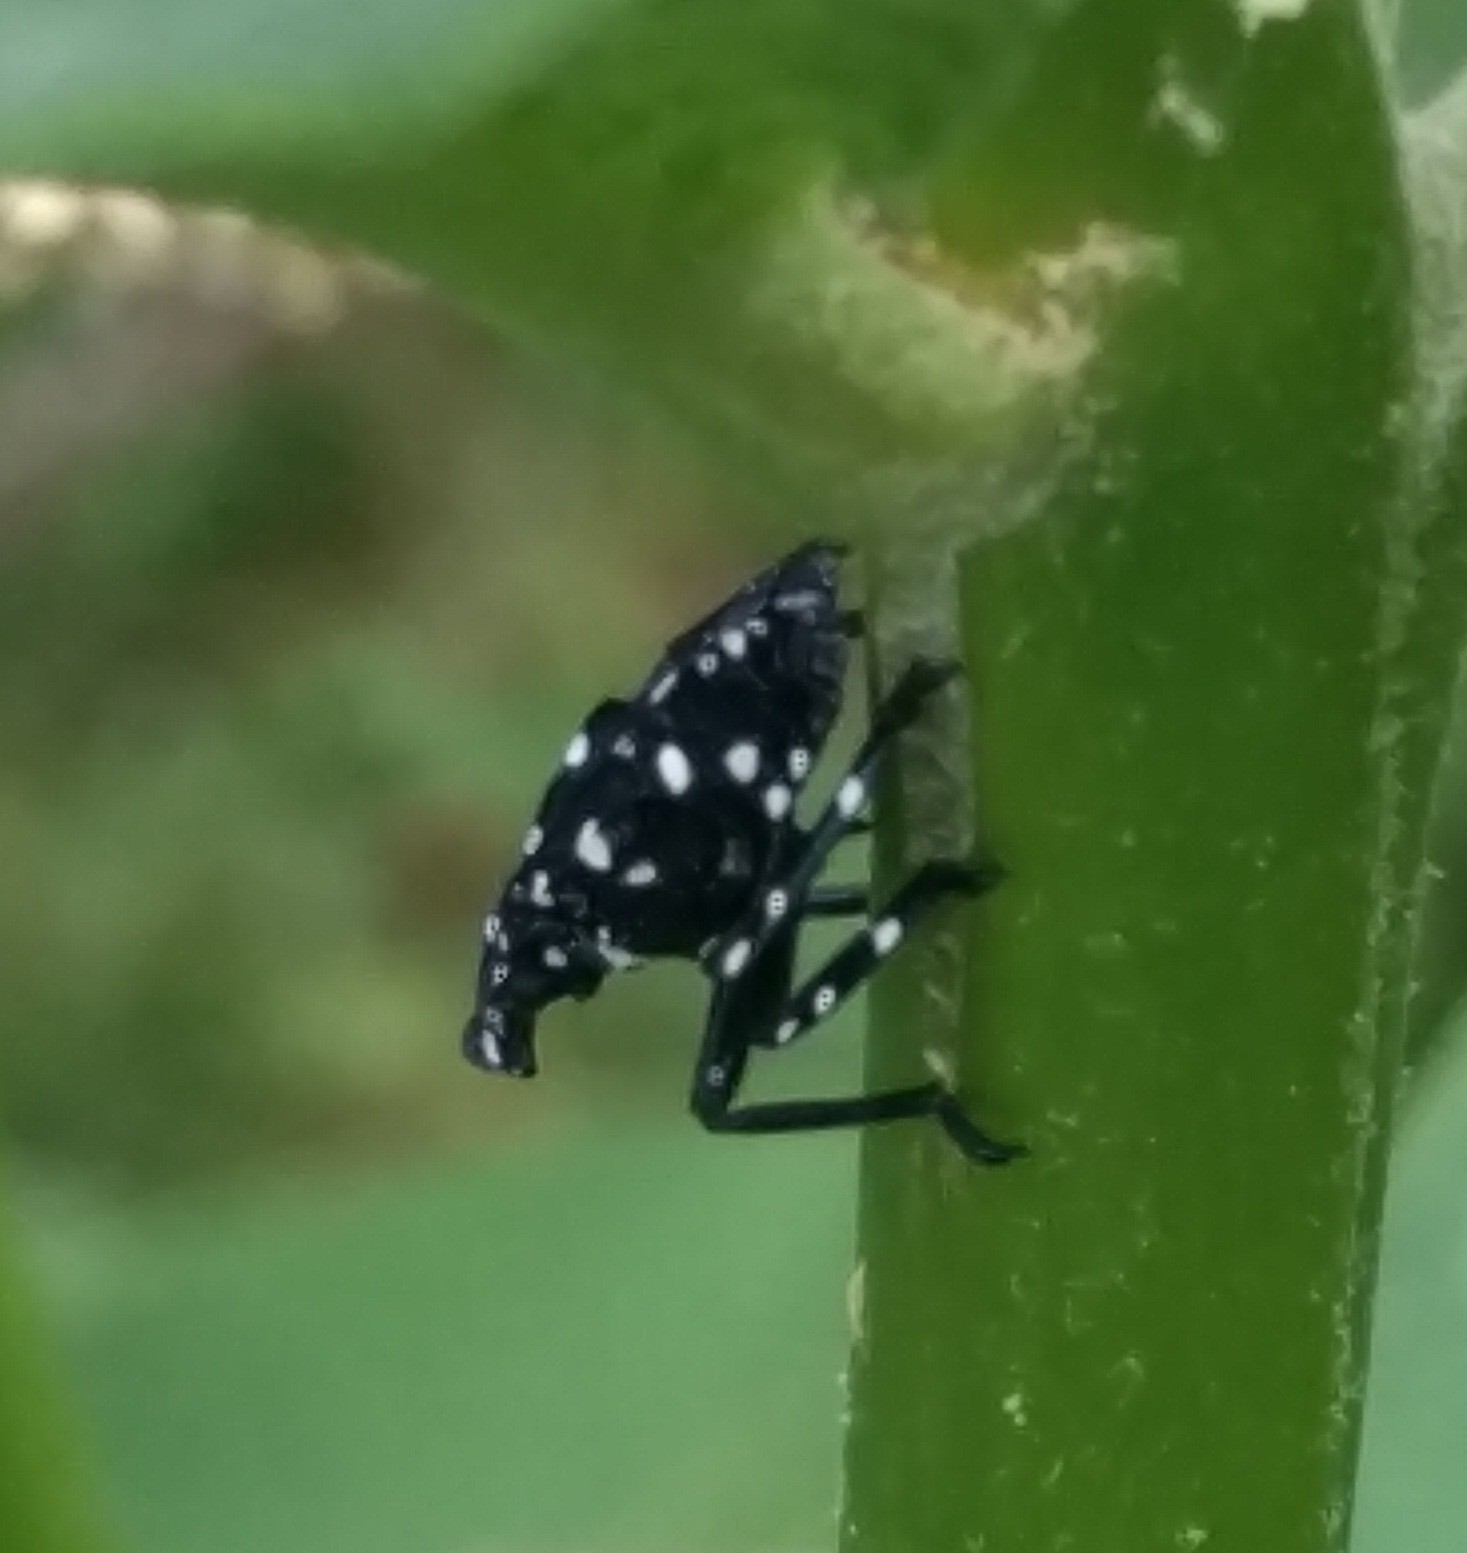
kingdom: Animalia
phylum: Arthropoda
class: Insecta
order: Hemiptera
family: Fulgoridae
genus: Lycorma
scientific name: Lycorma delicatula
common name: Spotted lanternfly
